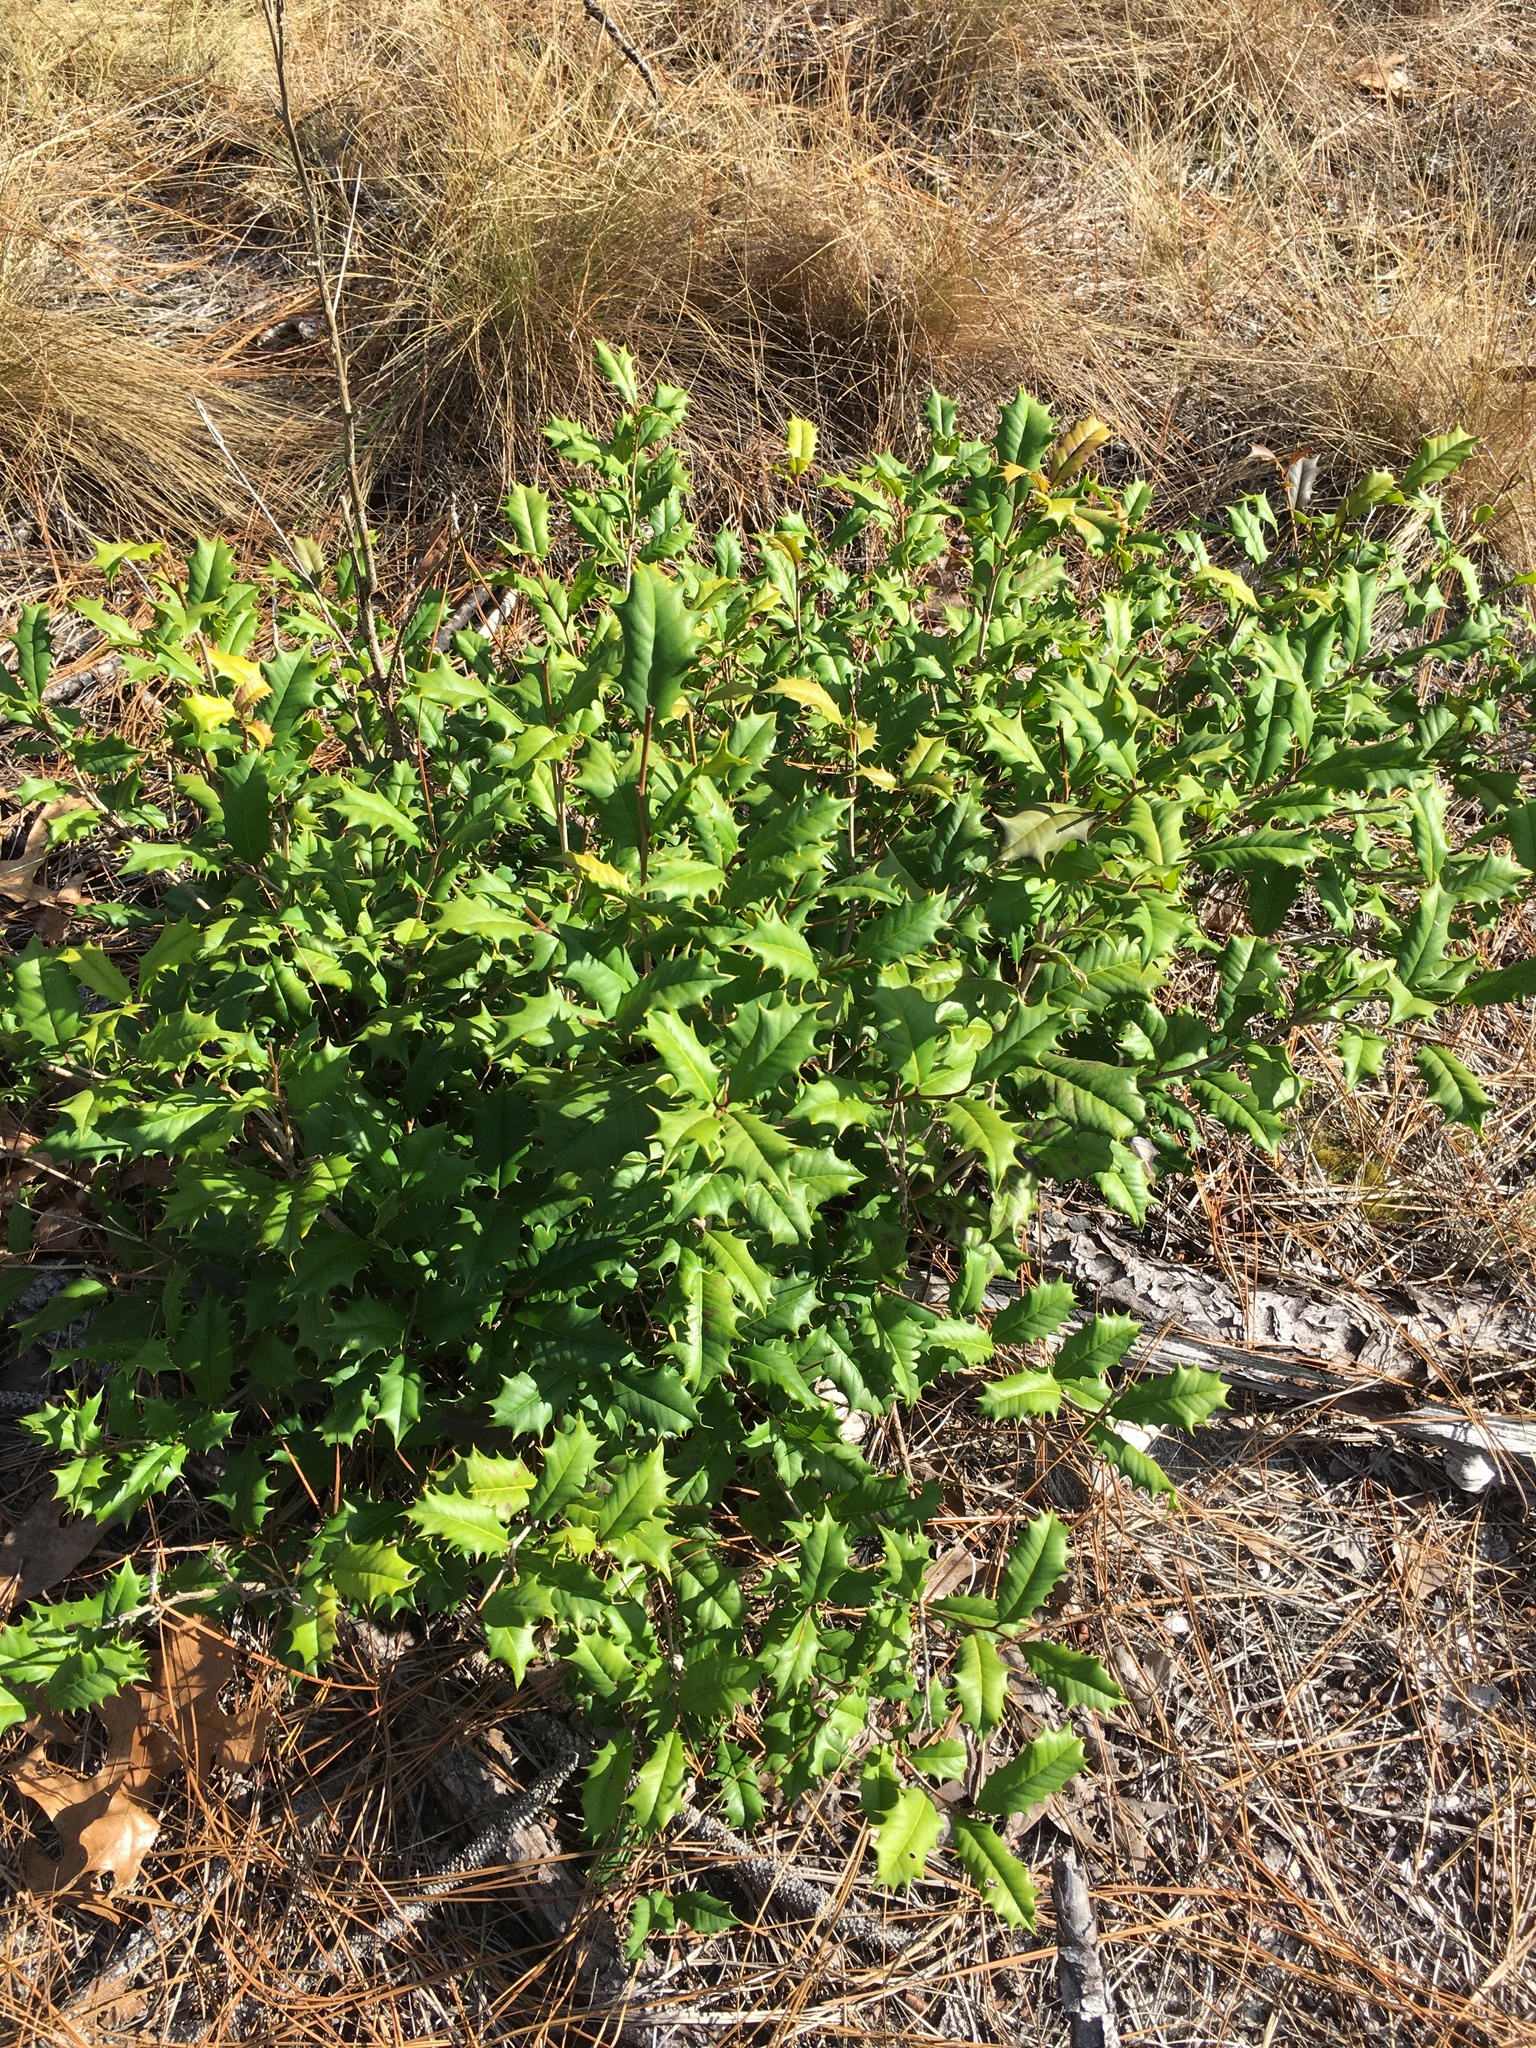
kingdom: Plantae
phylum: Tracheophyta
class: Magnoliopsida
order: Aquifoliales
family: Aquifoliaceae
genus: Ilex
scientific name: Ilex opaca
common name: American holly
